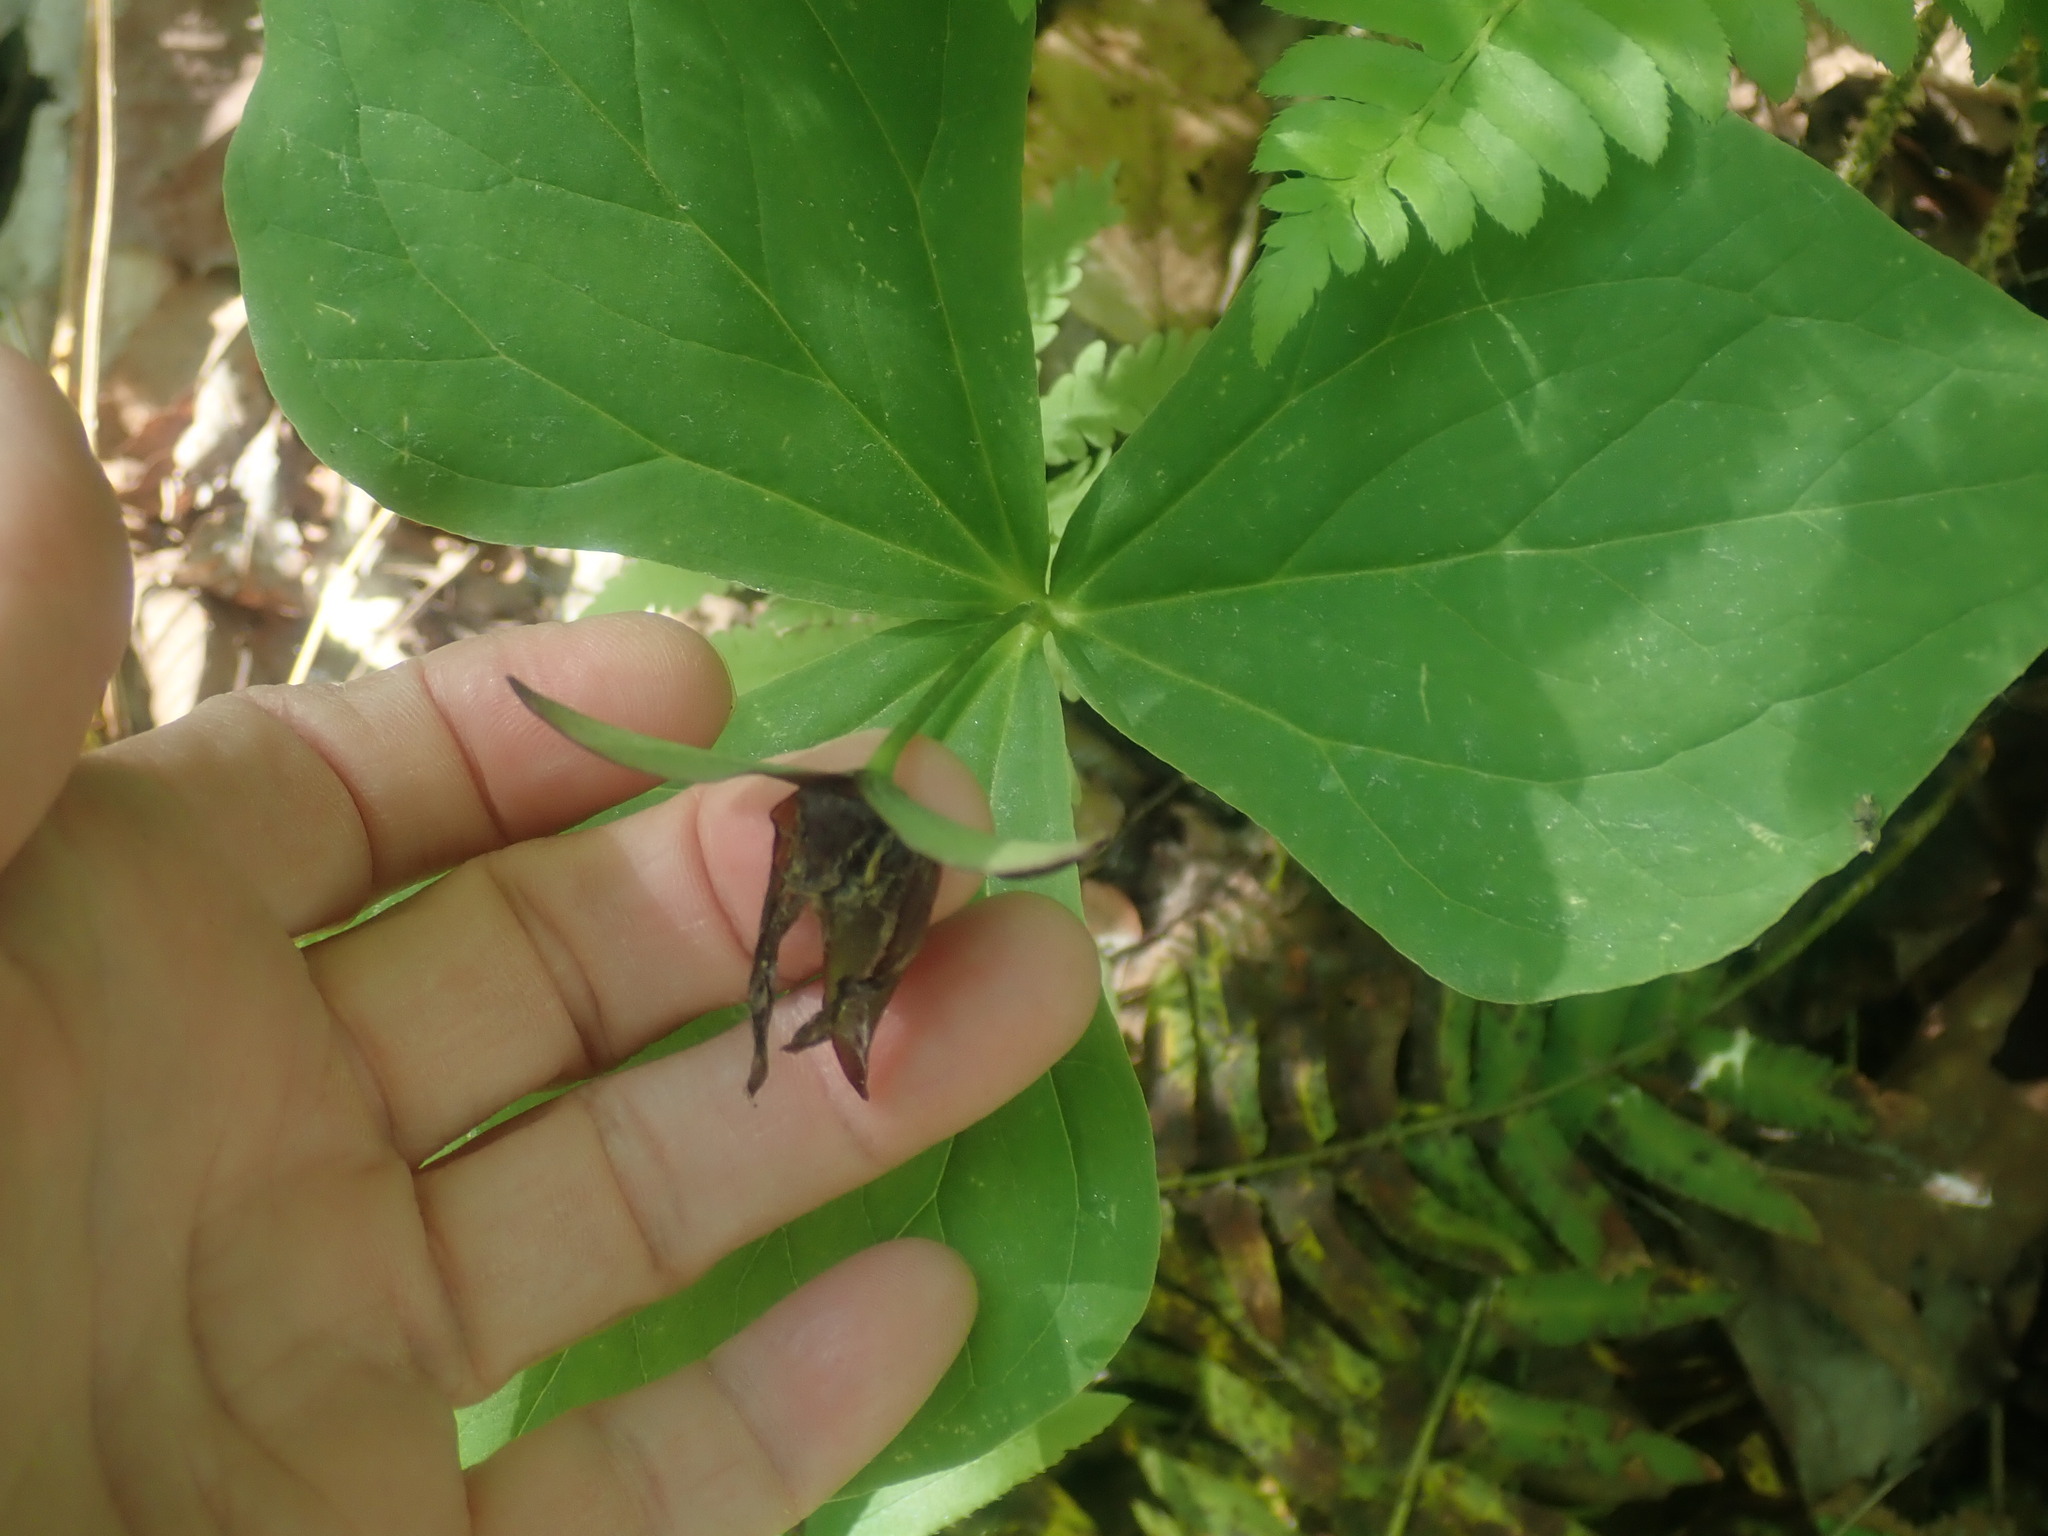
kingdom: Plantae
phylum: Tracheophyta
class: Liliopsida
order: Liliales
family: Melanthiaceae
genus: Trillium
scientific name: Trillium erectum
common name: Purple trillium
